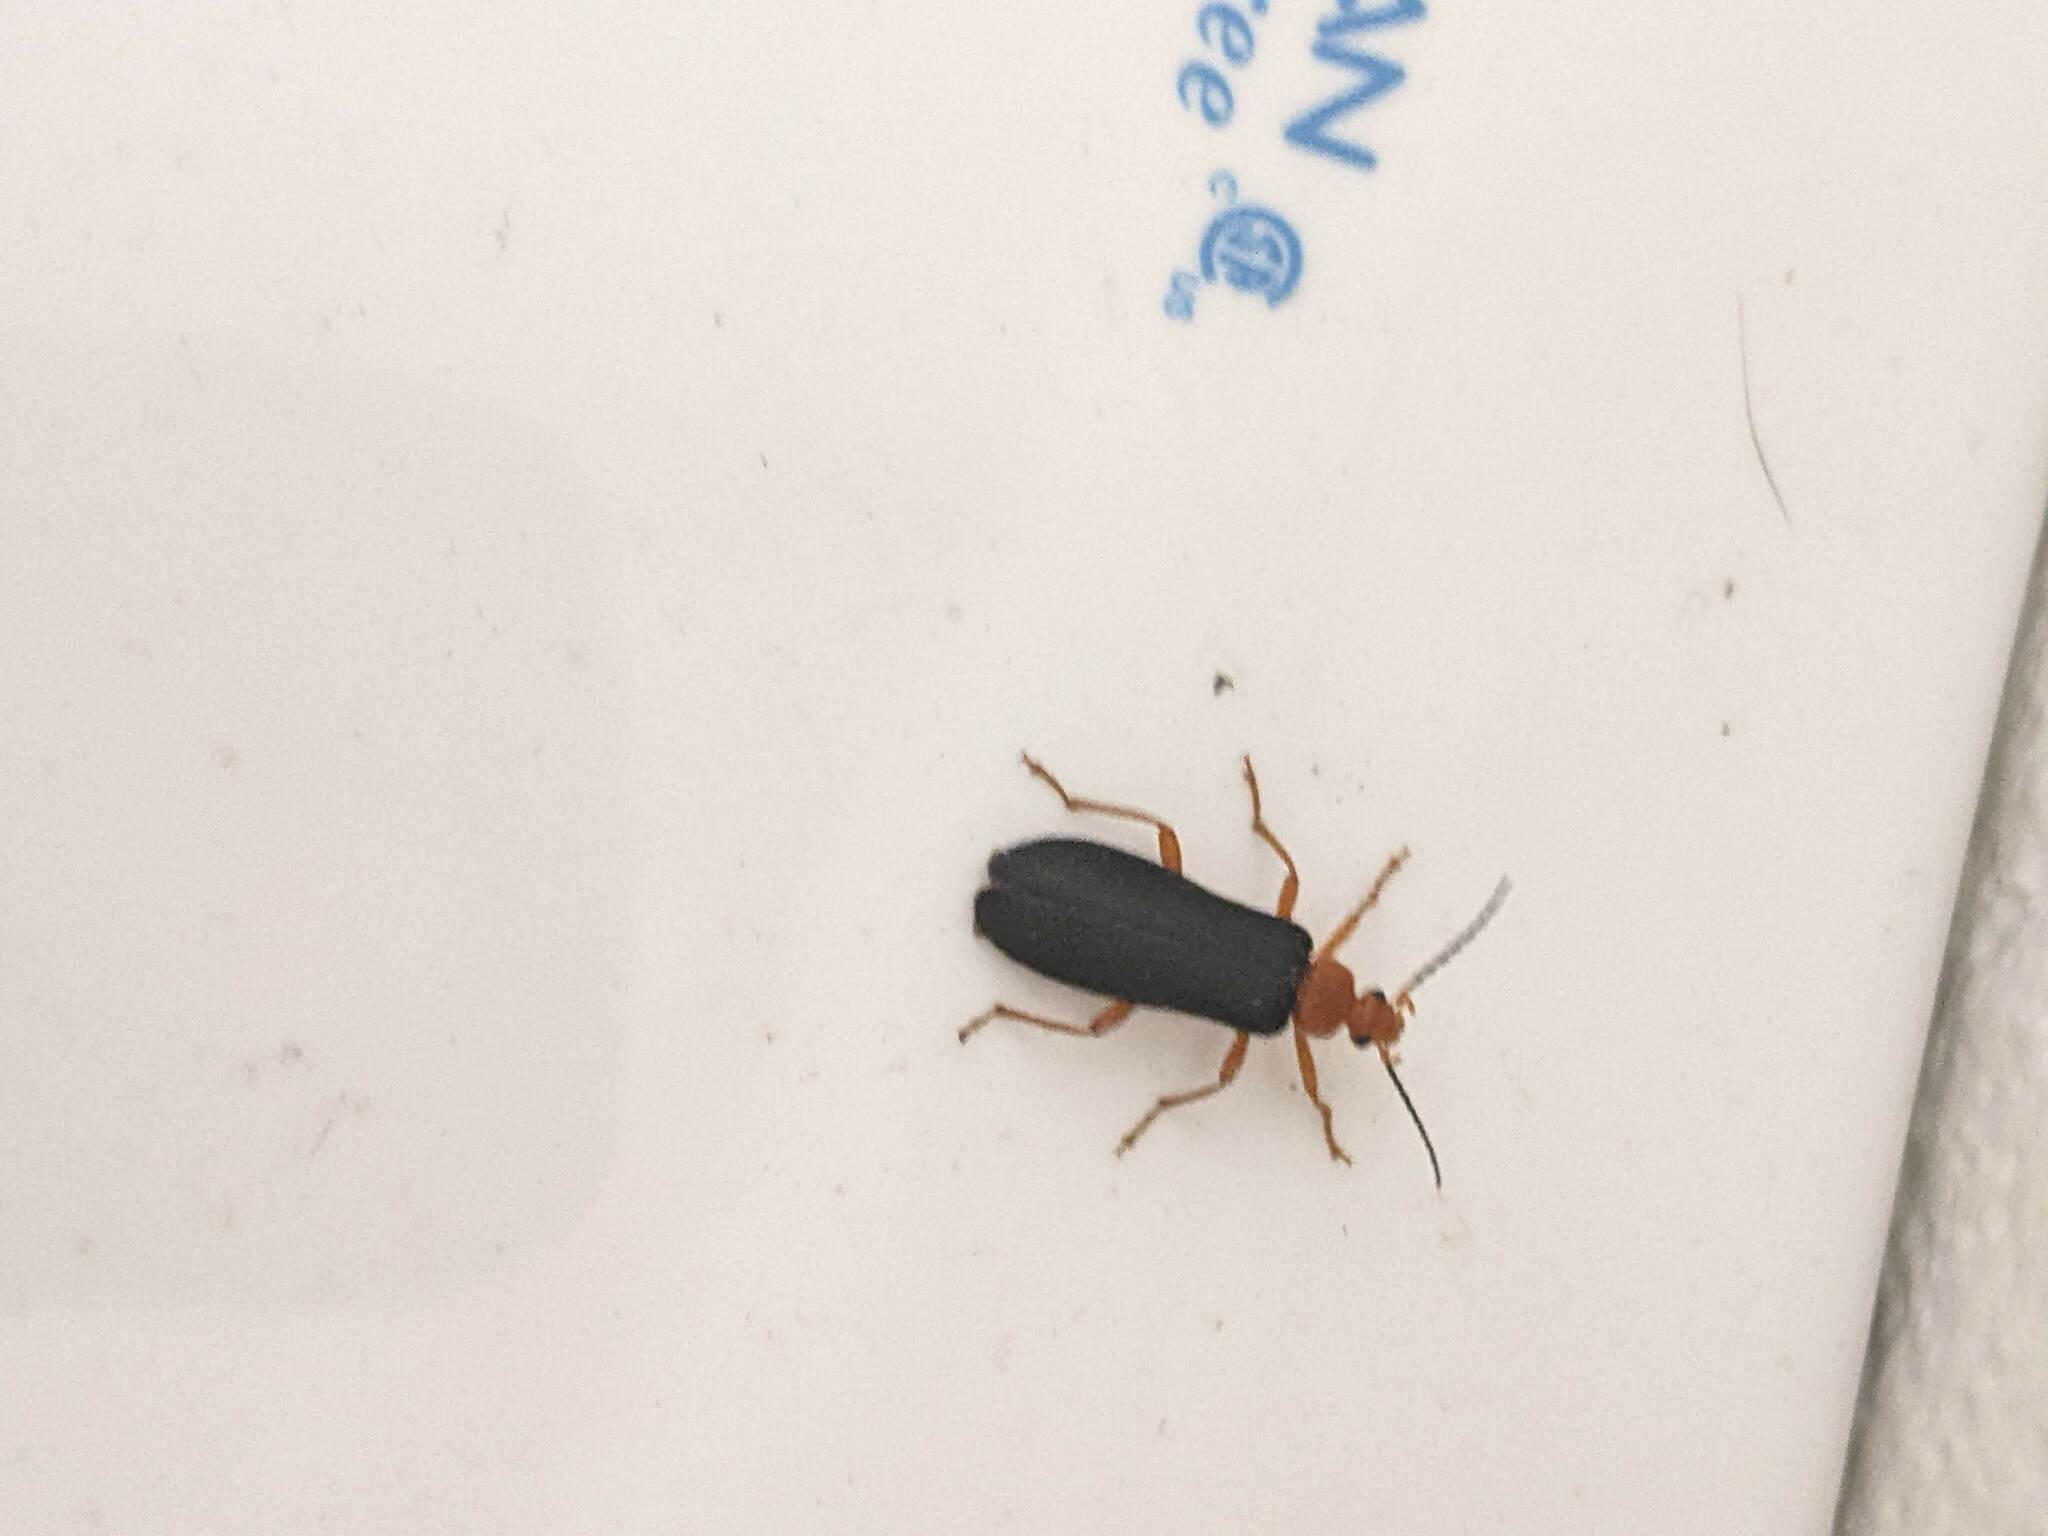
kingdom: Animalia
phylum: Arthropoda
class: Insecta
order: Coleoptera
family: Pyrochroidae
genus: Neopyrochroa
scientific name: Neopyrochroa flabellata
